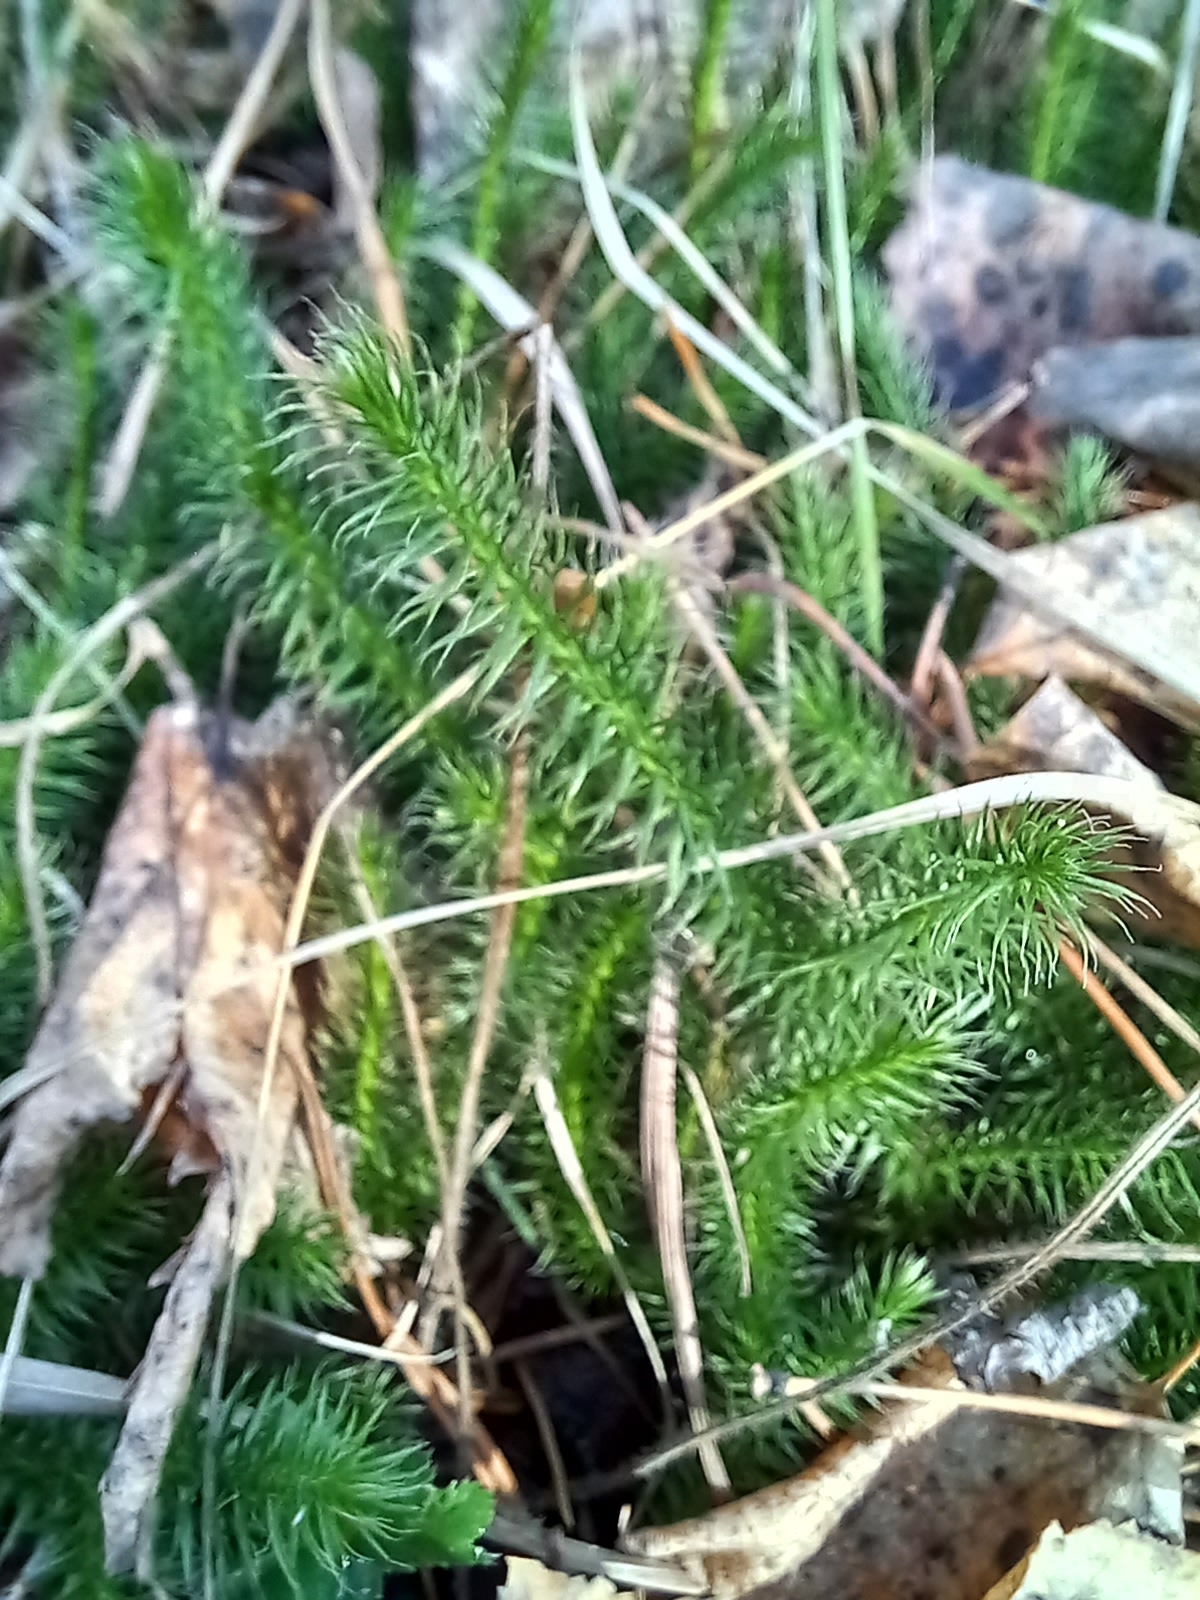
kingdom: Plantae
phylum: Tracheophyta
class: Lycopodiopsida
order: Lycopodiales
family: Lycopodiaceae
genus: Lycopodium
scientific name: Lycopodium clavatum
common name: Stag's-horn clubmoss
